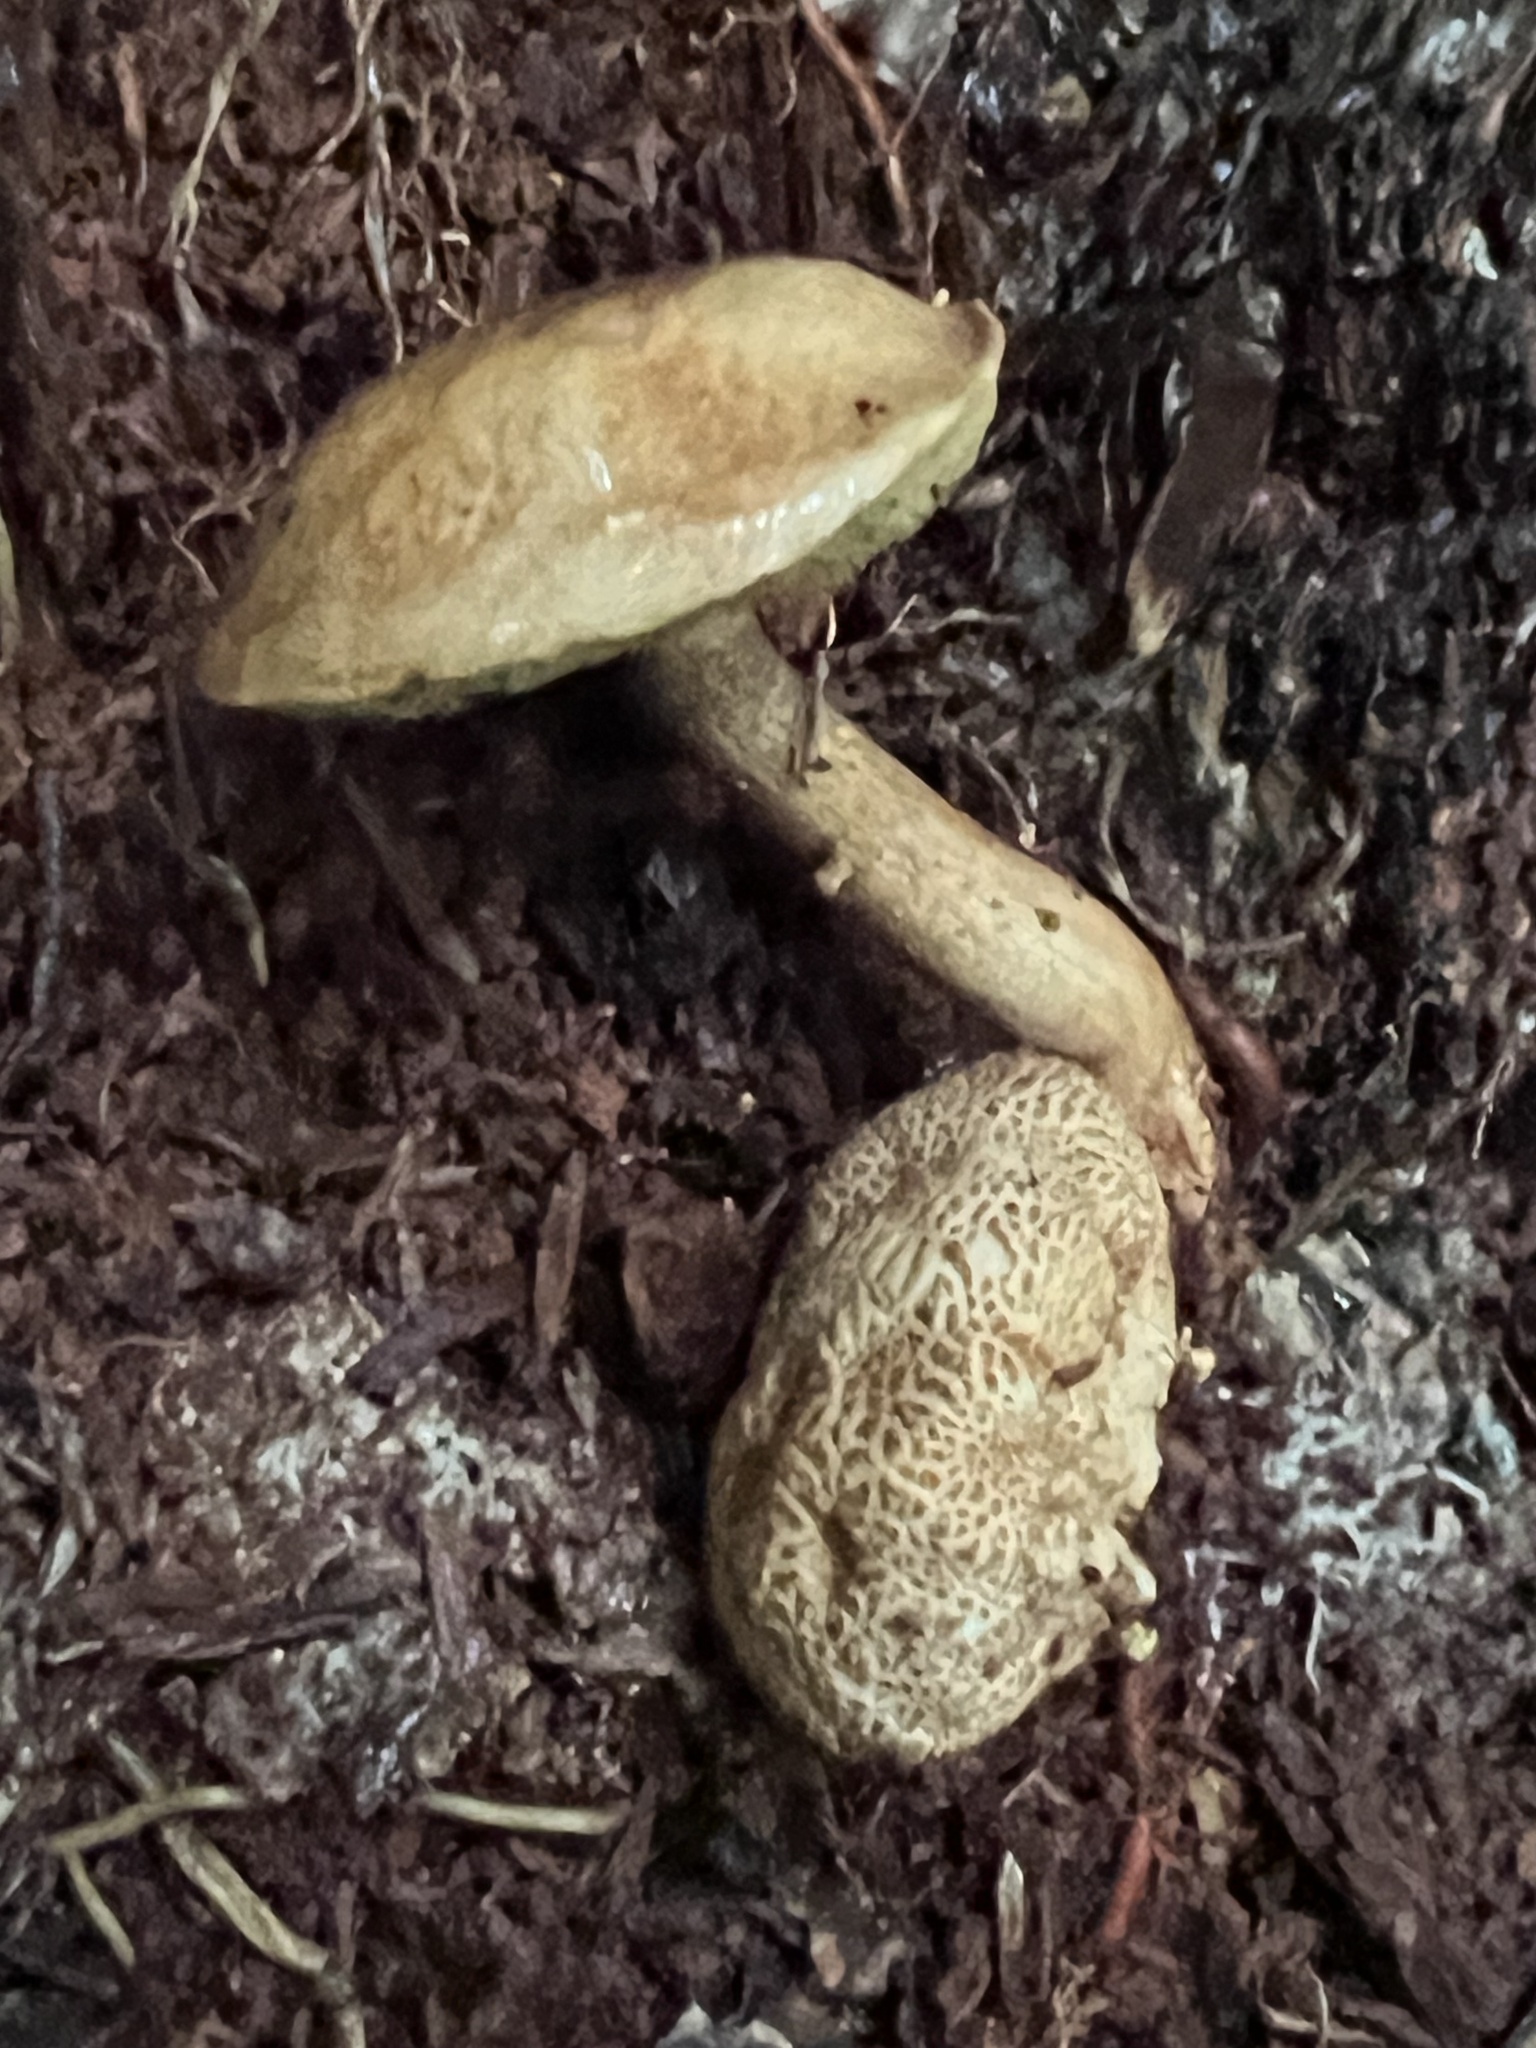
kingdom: Fungi
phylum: Basidiomycota
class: Agaricomycetes
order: Boletales
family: Boletaceae
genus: Pseudoboletus
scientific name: Pseudoboletus parasiticus
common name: Parasitic bolete
